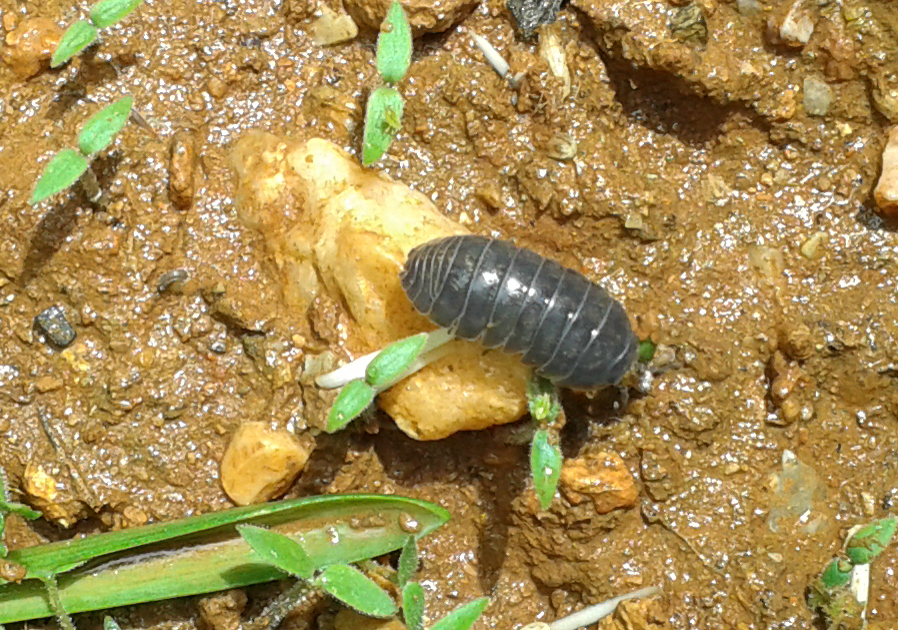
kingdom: Animalia
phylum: Arthropoda
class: Malacostraca
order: Isopoda
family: Armadillidiidae
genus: Armadillidium
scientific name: Armadillidium vulgare
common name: Common pill woodlouse
